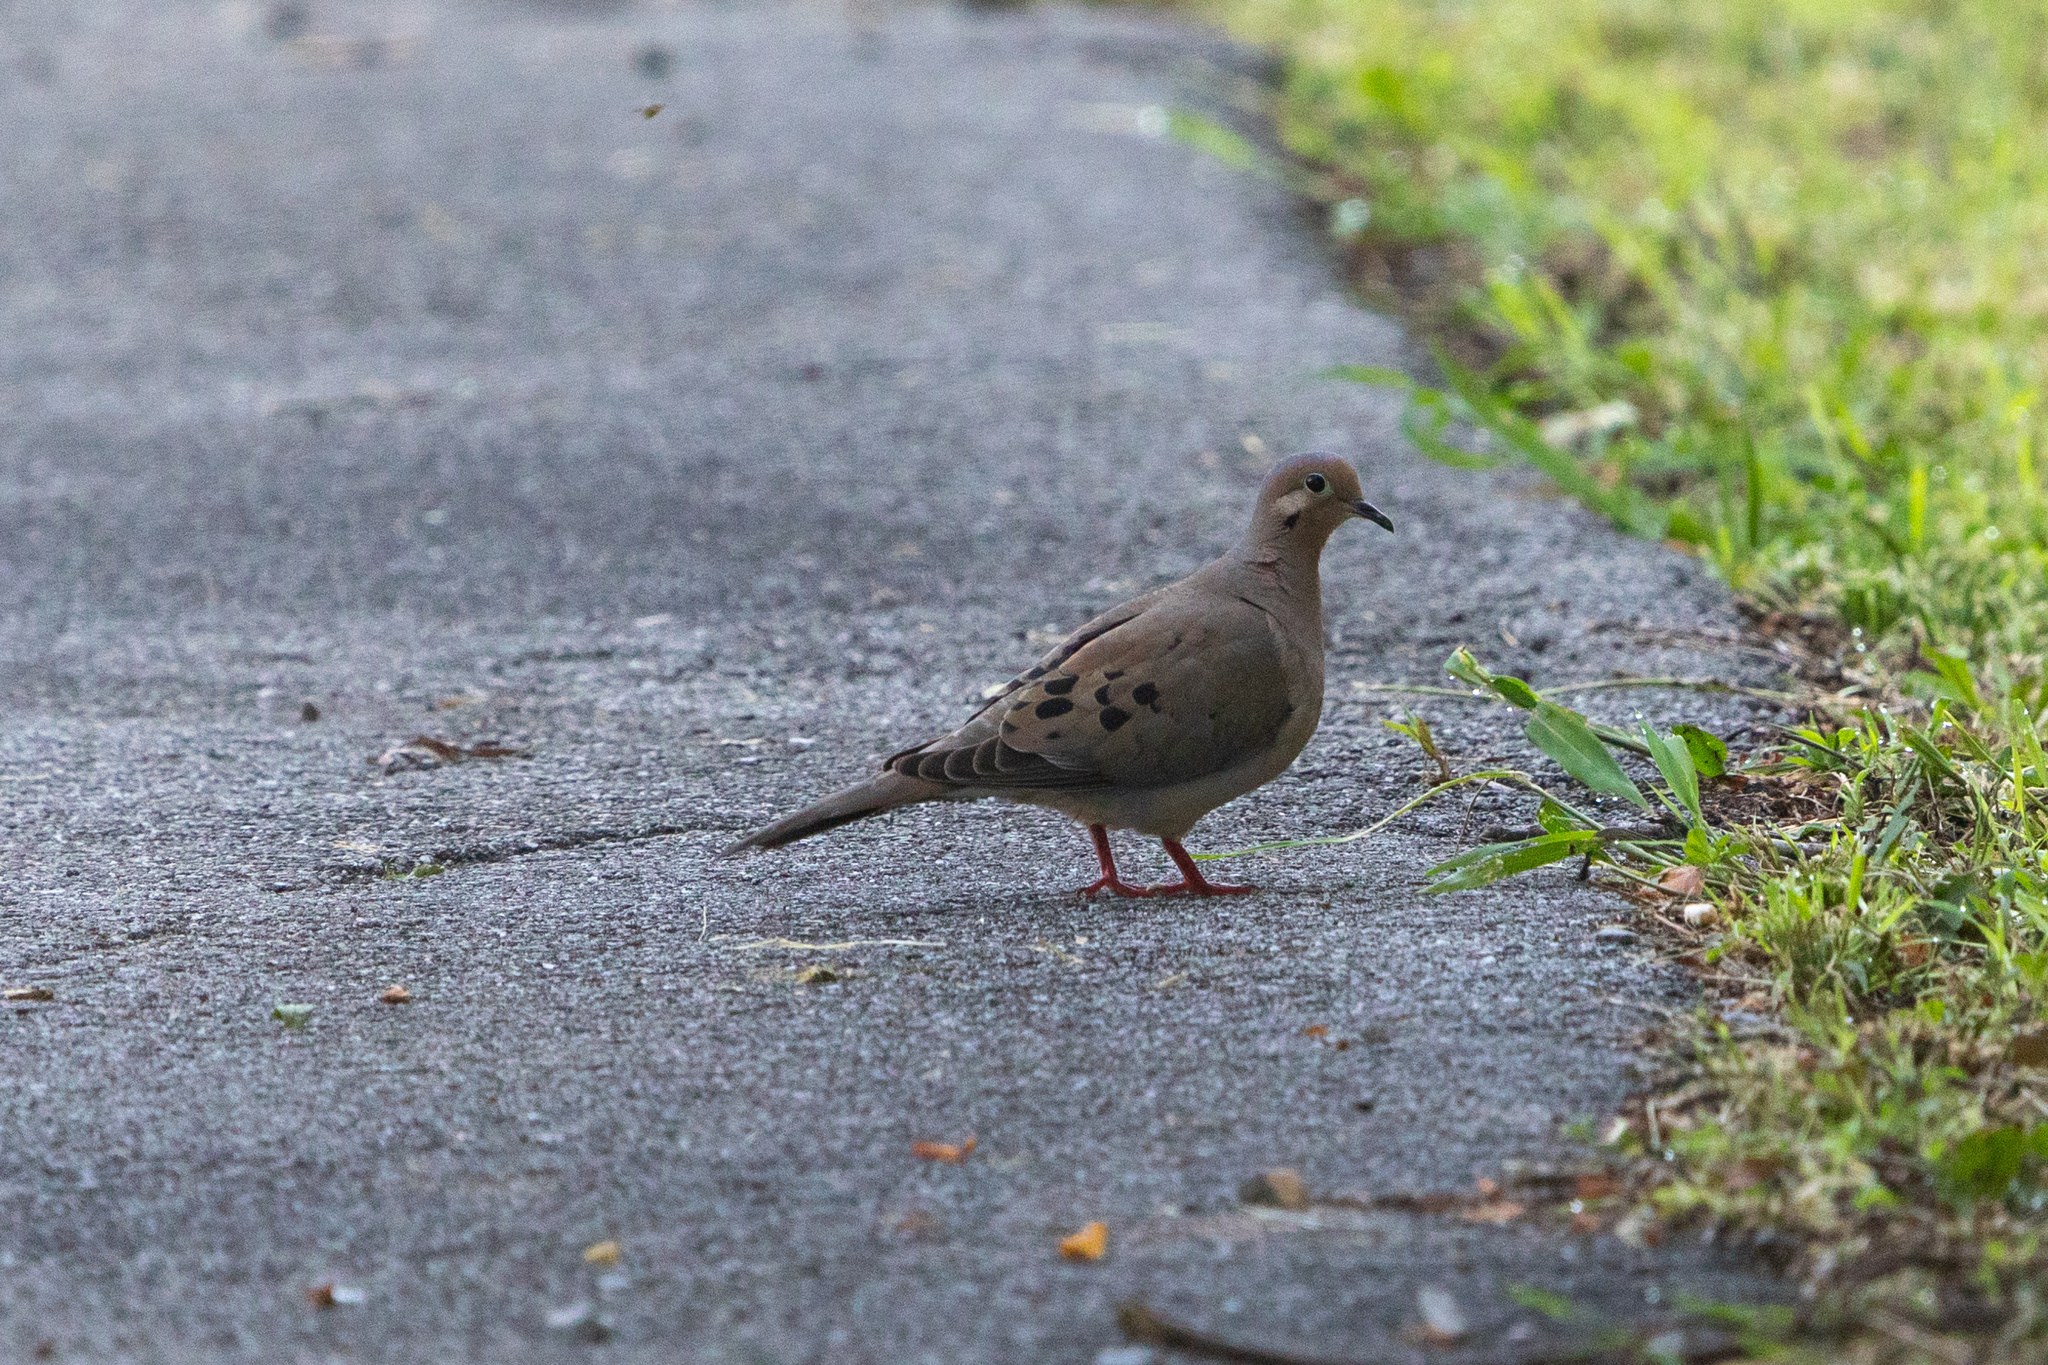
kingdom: Animalia
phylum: Chordata
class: Aves
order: Columbiformes
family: Columbidae
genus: Zenaida
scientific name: Zenaida macroura
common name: Mourning dove
